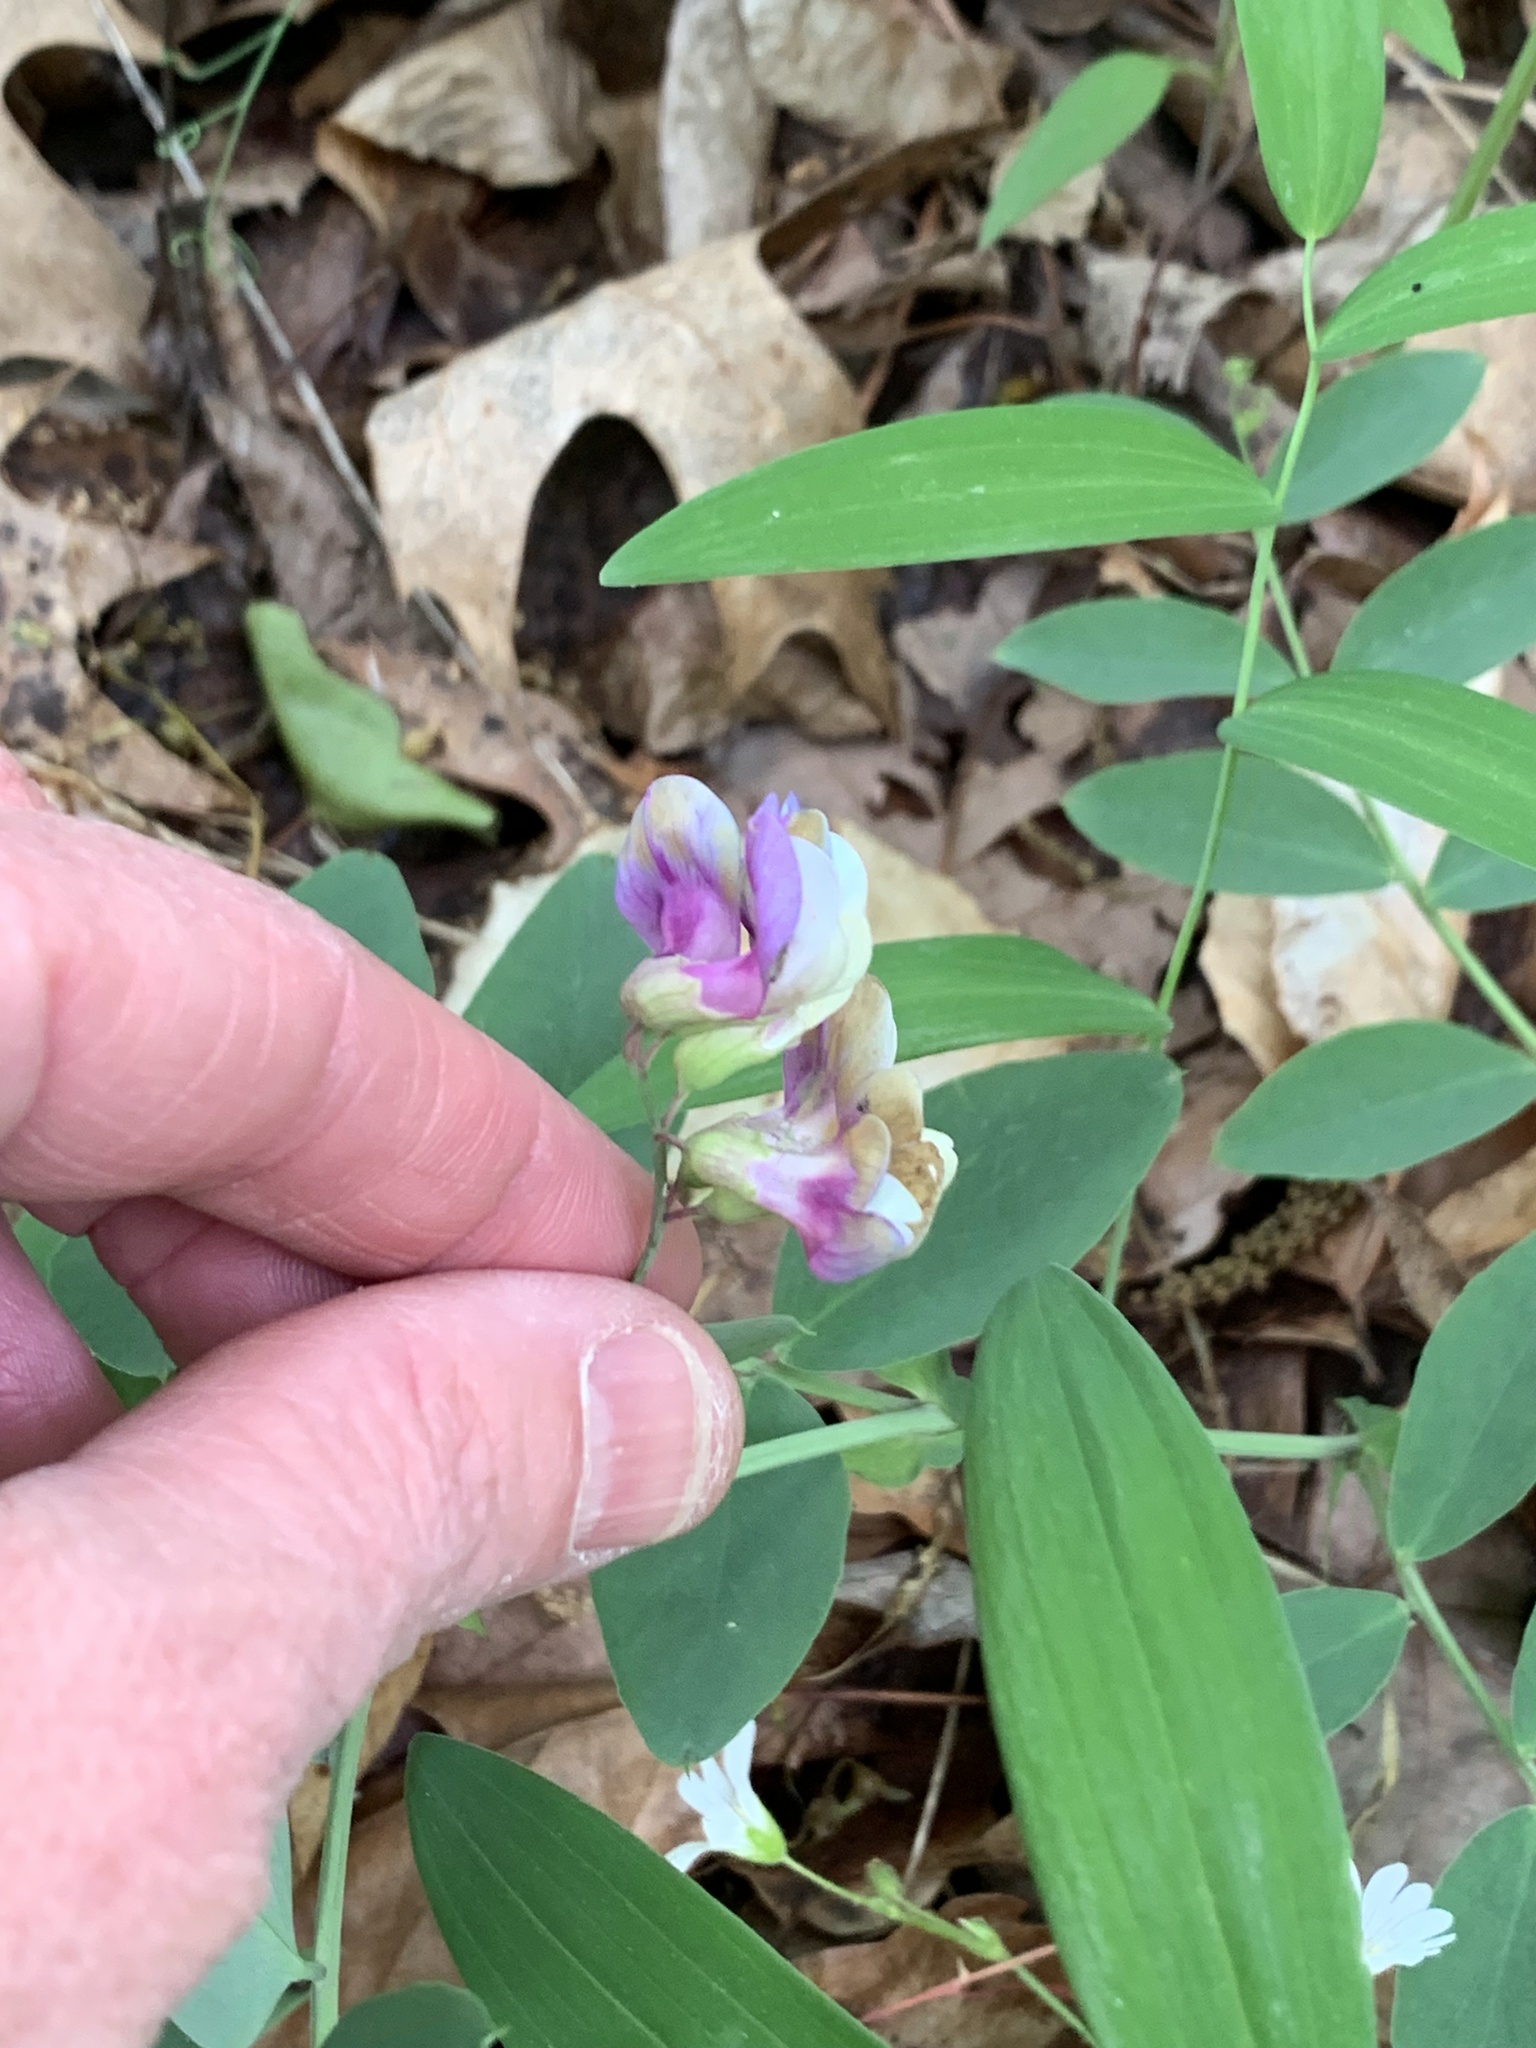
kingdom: Plantae
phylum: Tracheophyta
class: Magnoliopsida
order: Fabales
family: Fabaceae
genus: Lathyrus
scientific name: Lathyrus venosus
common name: Forest-pea
